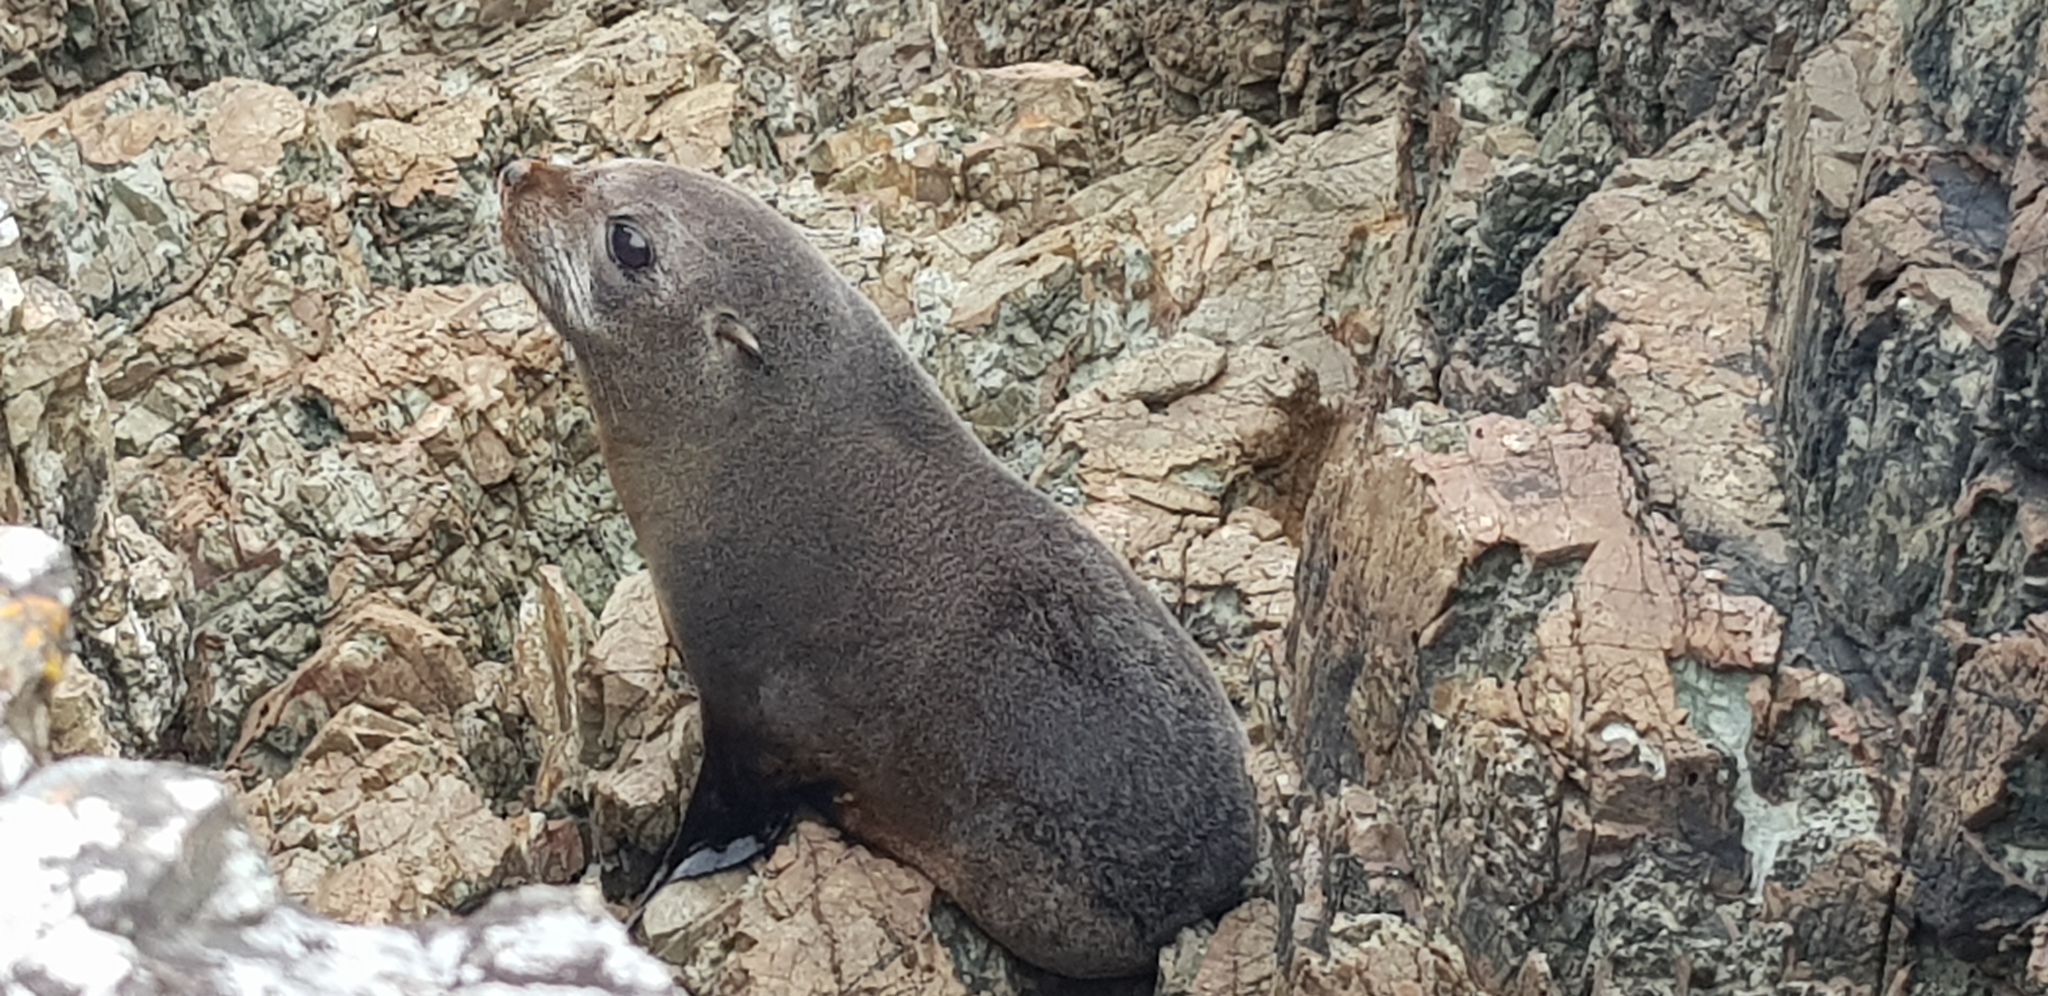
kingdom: Animalia
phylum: Chordata
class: Mammalia
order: Carnivora
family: Otariidae
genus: Arctocephalus
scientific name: Arctocephalus forsteri
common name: New zealand fur seal
